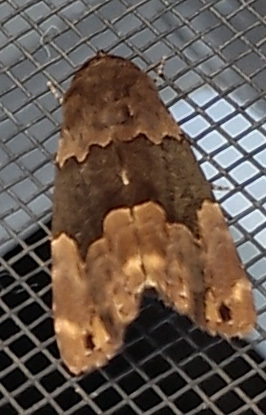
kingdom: Animalia
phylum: Arthropoda
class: Insecta
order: Lepidoptera
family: Erebidae
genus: Dinumma
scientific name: Dinumma deponens
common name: Purplish moth
